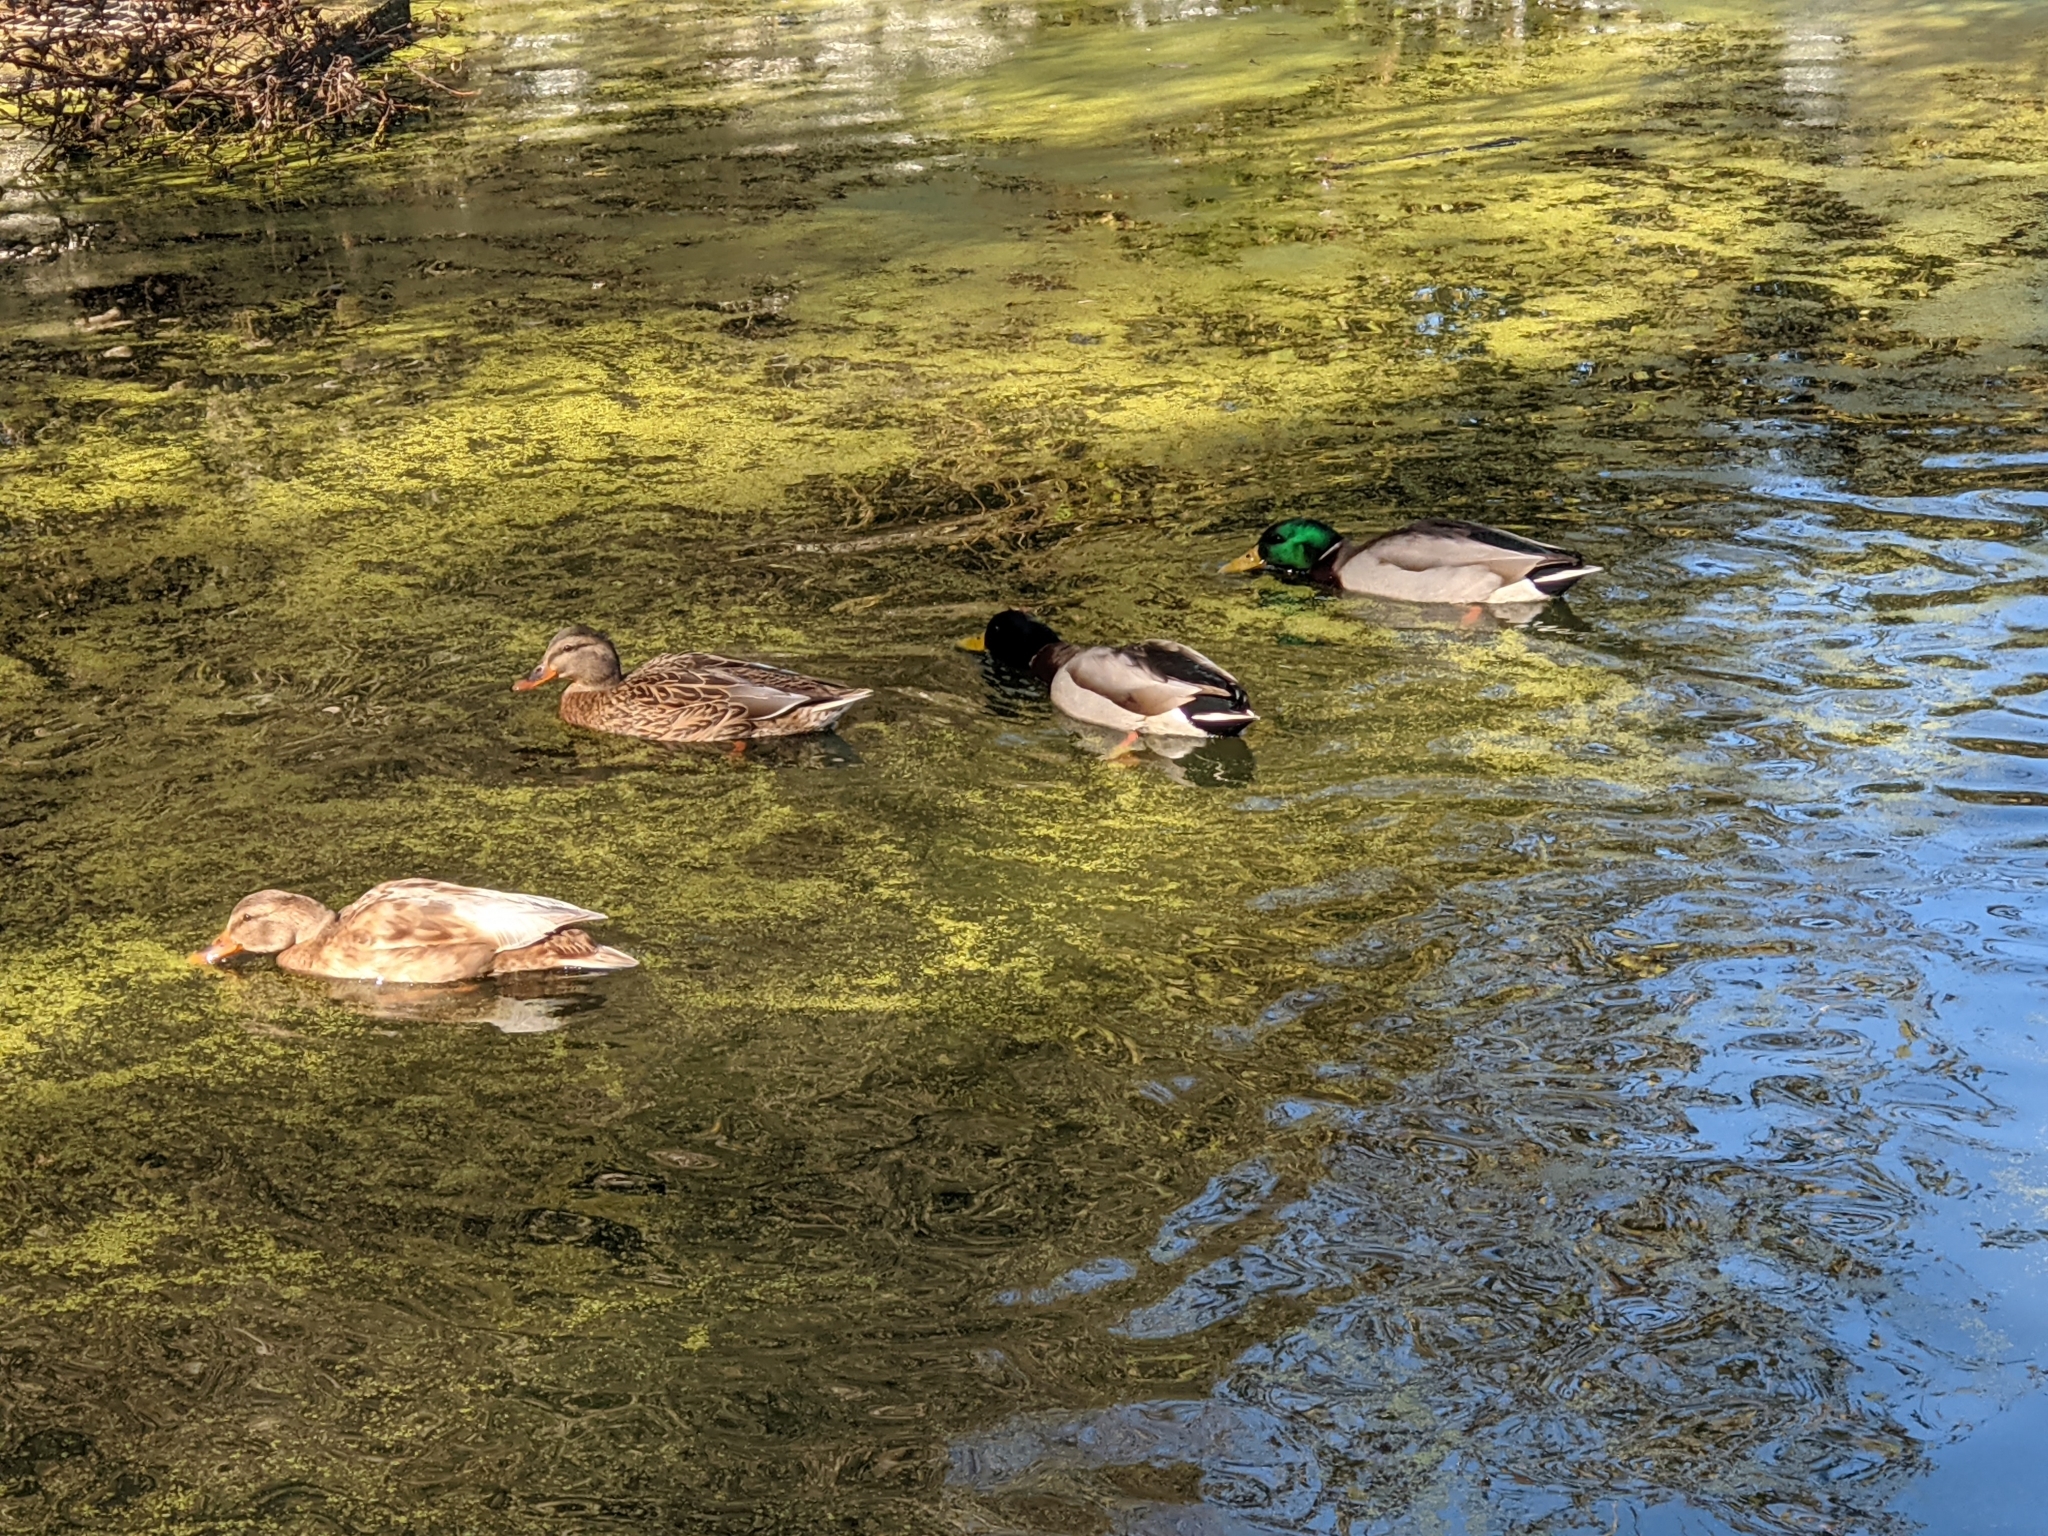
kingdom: Animalia
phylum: Chordata
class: Aves
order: Anseriformes
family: Anatidae
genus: Anas
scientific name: Anas platyrhynchos
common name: Mallard
